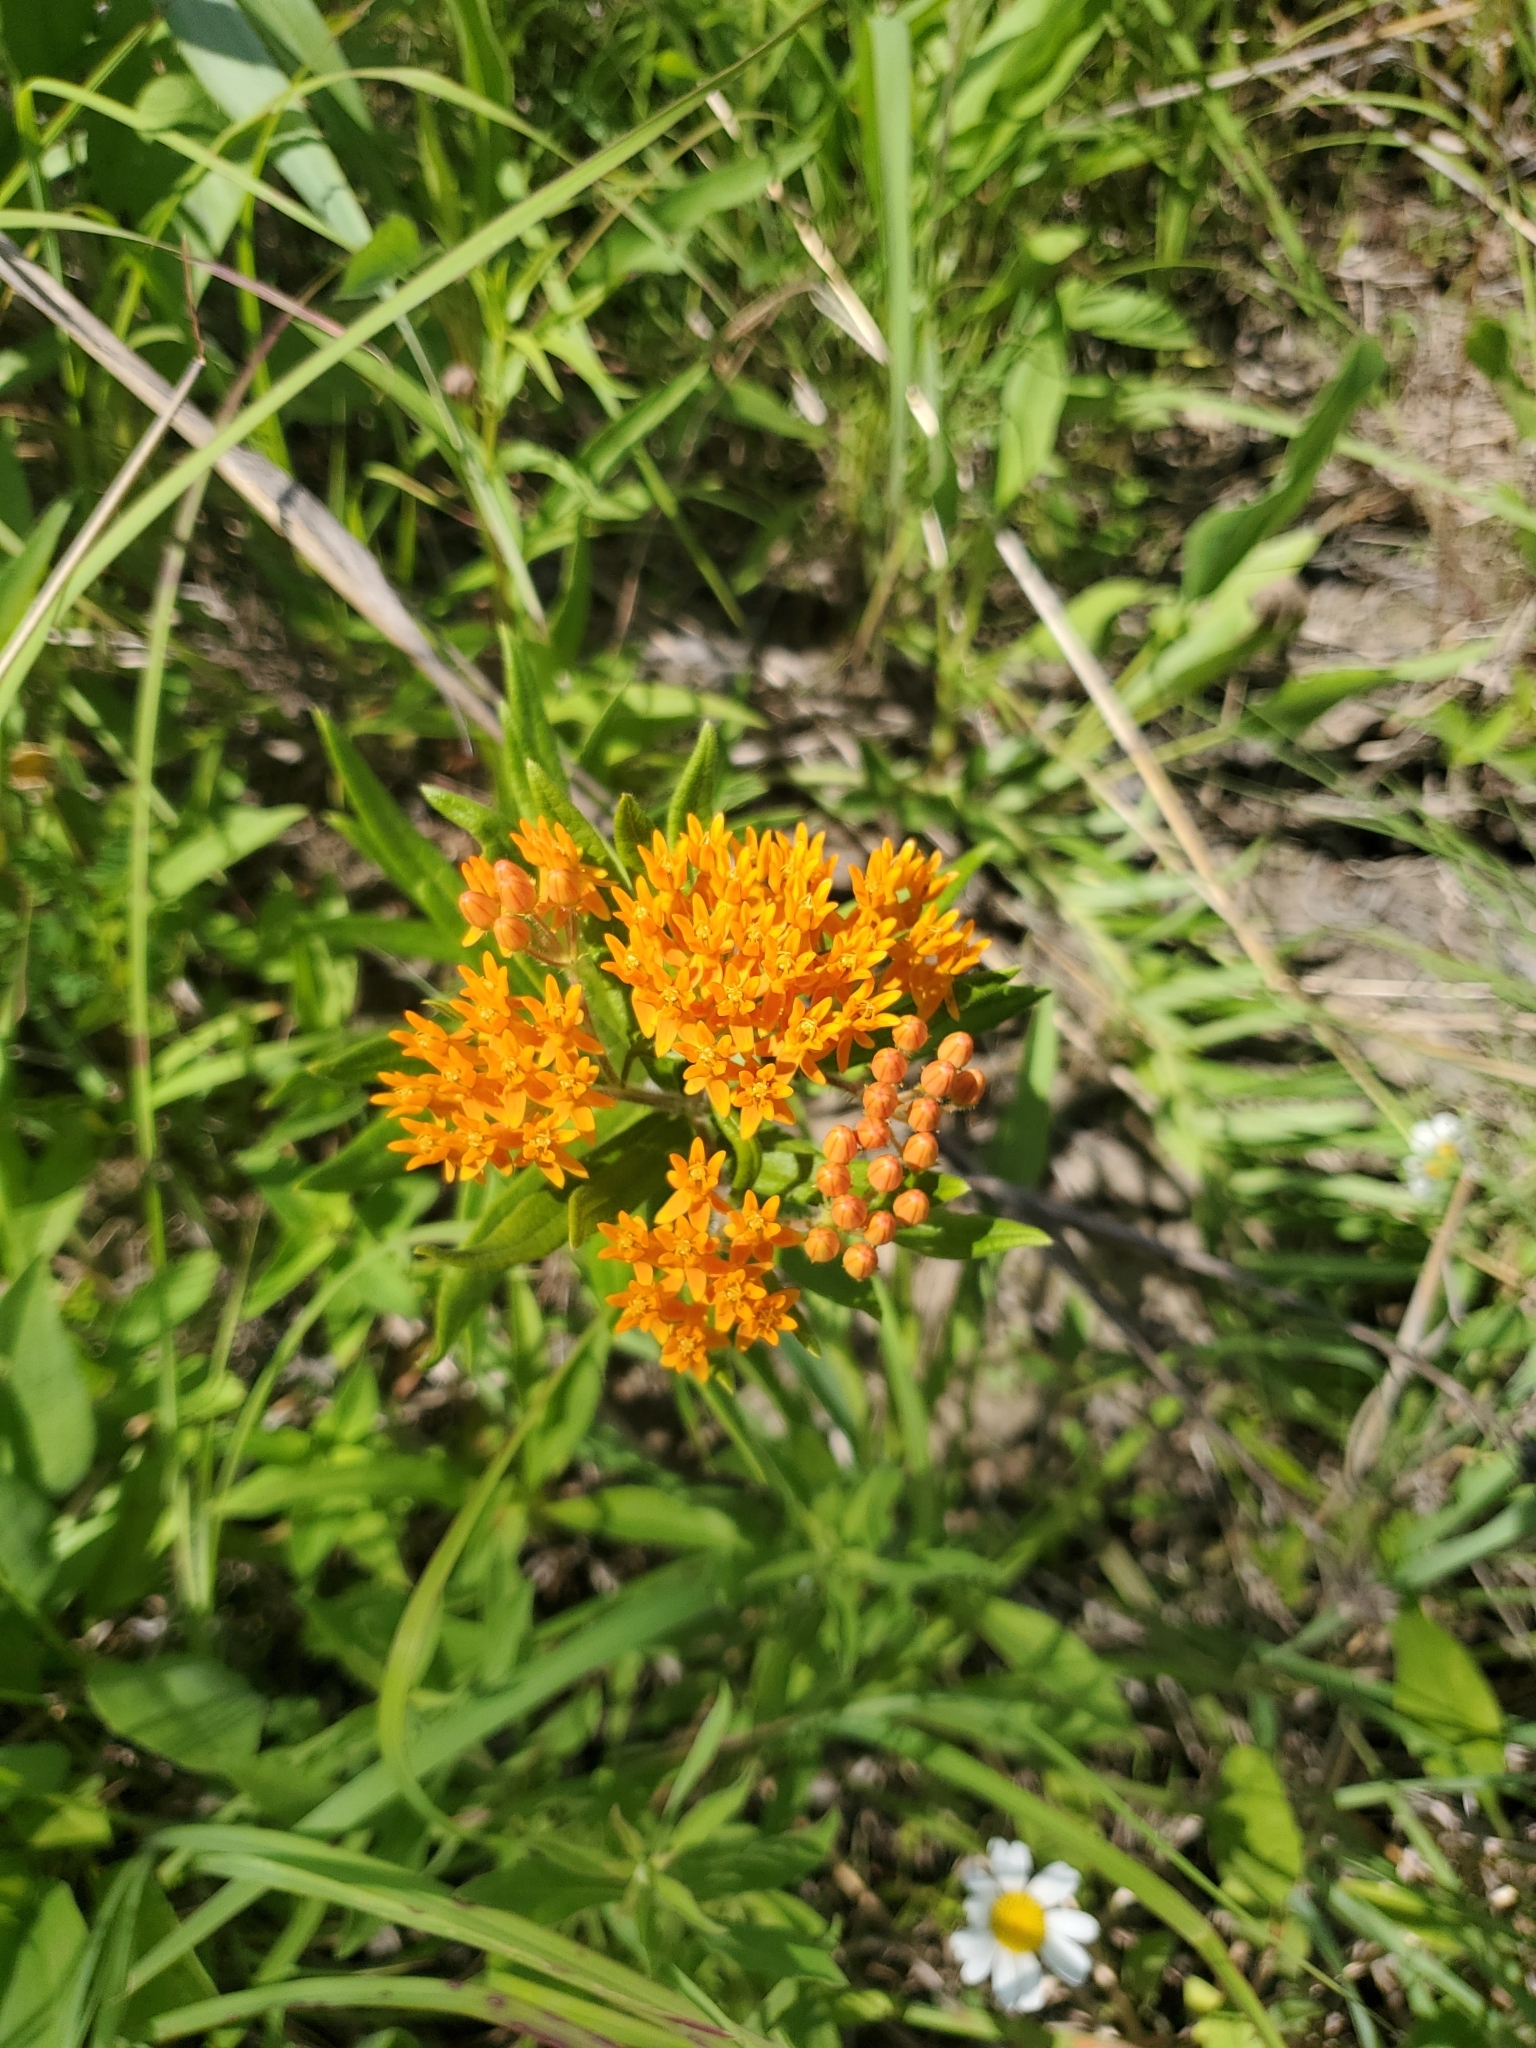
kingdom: Plantae
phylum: Tracheophyta
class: Magnoliopsida
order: Gentianales
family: Apocynaceae
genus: Asclepias
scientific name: Asclepias tuberosa
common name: Butterfly milkweed
